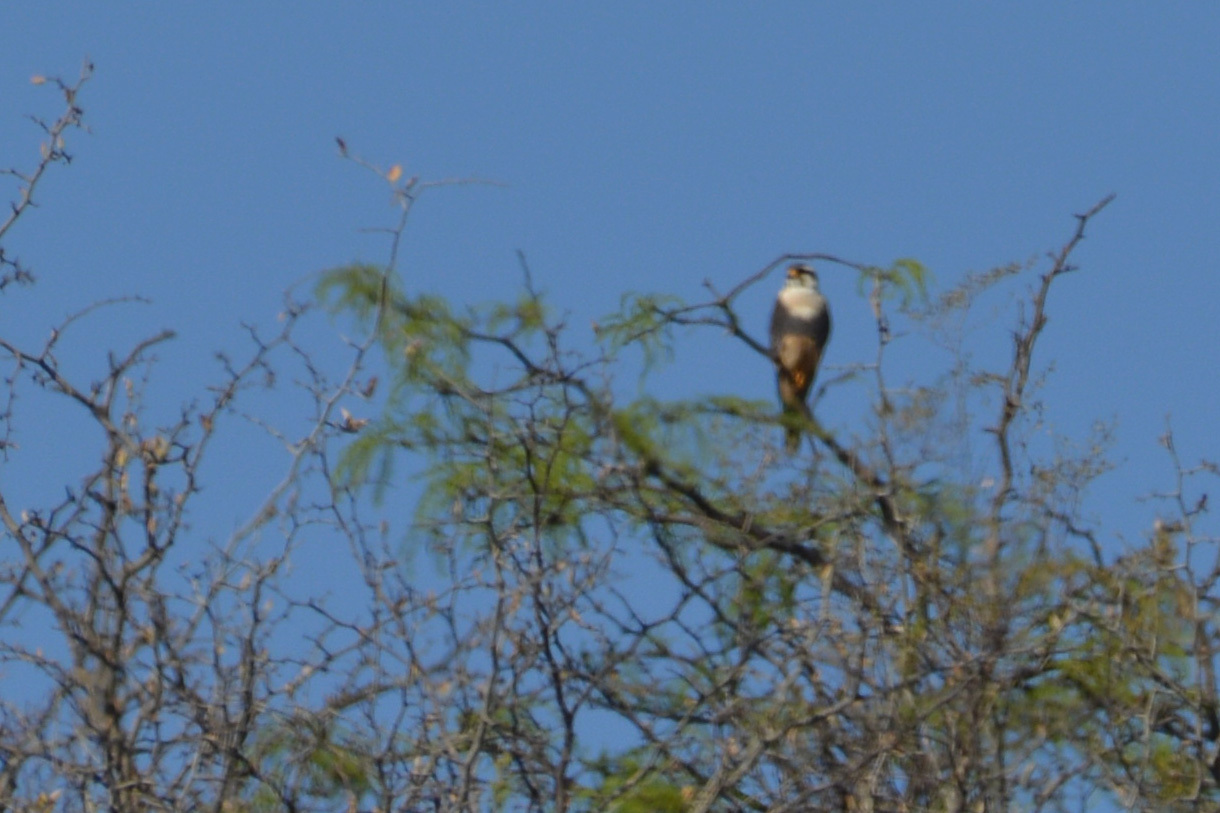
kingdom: Animalia
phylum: Chordata
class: Aves
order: Falconiformes
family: Falconidae
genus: Falco
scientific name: Falco femoralis
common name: Aplomado falcon
